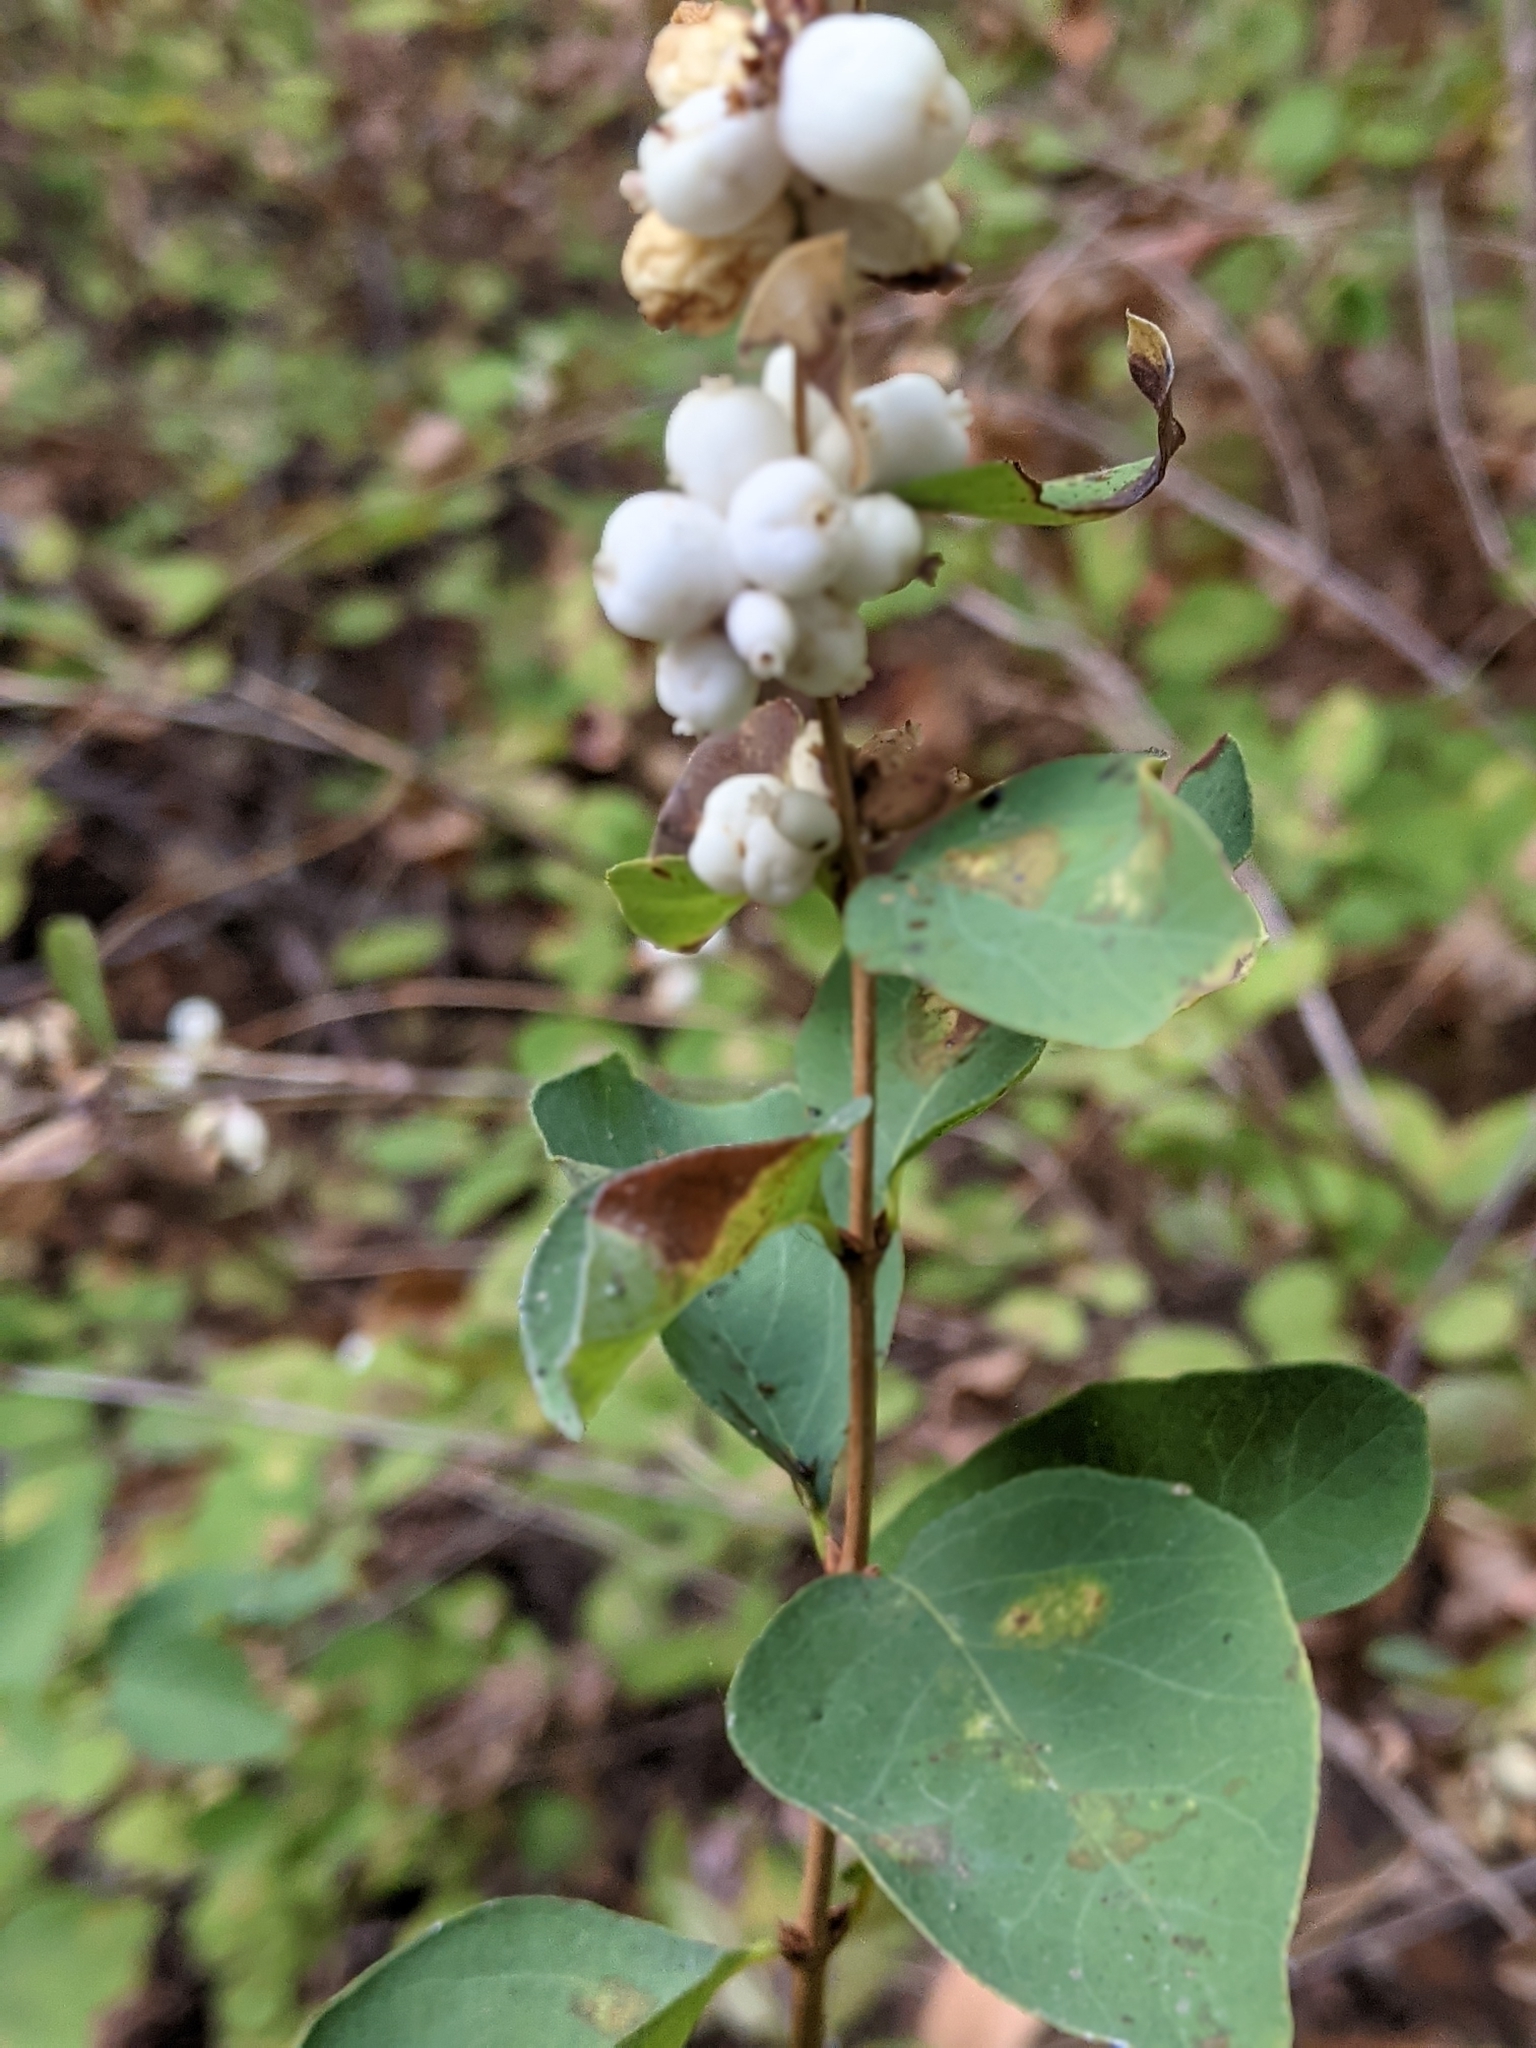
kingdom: Plantae
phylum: Tracheophyta
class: Magnoliopsida
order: Dipsacales
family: Caprifoliaceae
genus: Symphoricarpos
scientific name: Symphoricarpos albus
